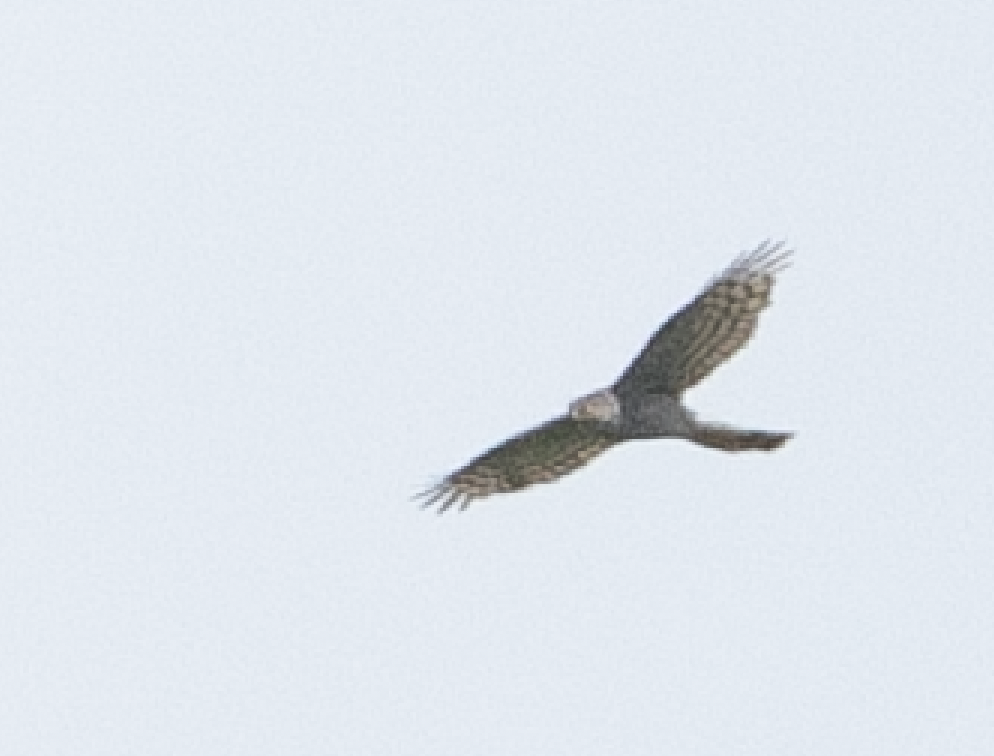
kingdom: Animalia
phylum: Chordata
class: Aves
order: Accipitriformes
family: Accipitridae
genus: Accipiter
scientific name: Accipiter nisus
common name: Eurasian sparrowhawk
